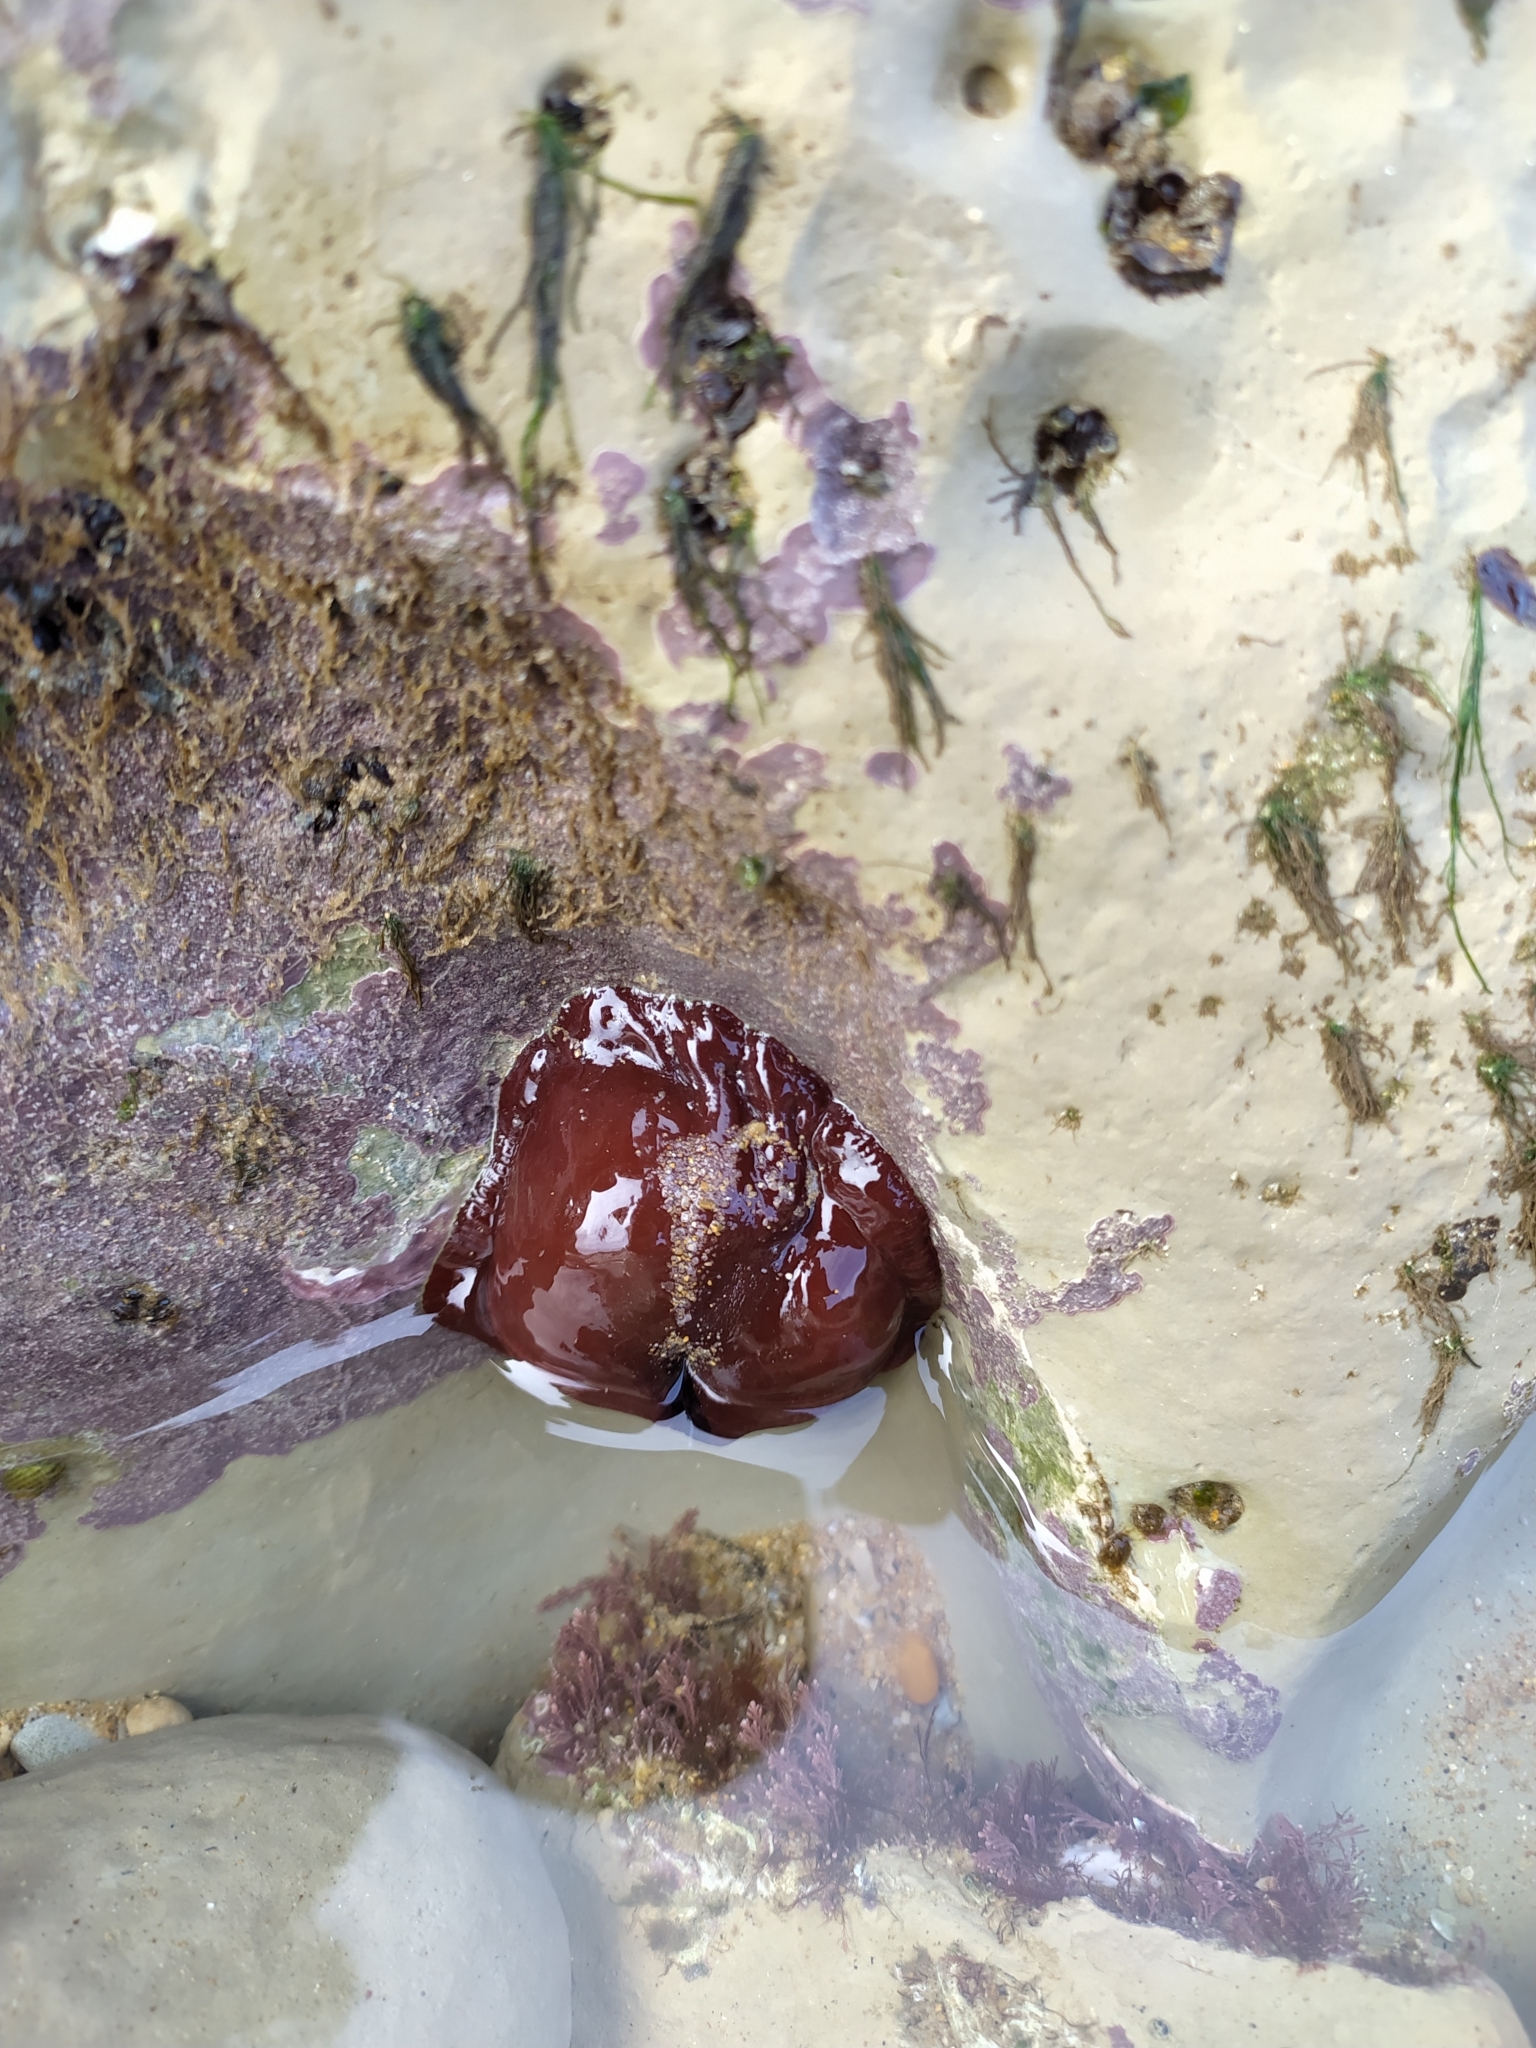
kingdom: Animalia
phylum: Cnidaria
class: Anthozoa
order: Actiniaria
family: Actiniidae
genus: Actinia
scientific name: Actinia equina
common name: Beadlet anemone
